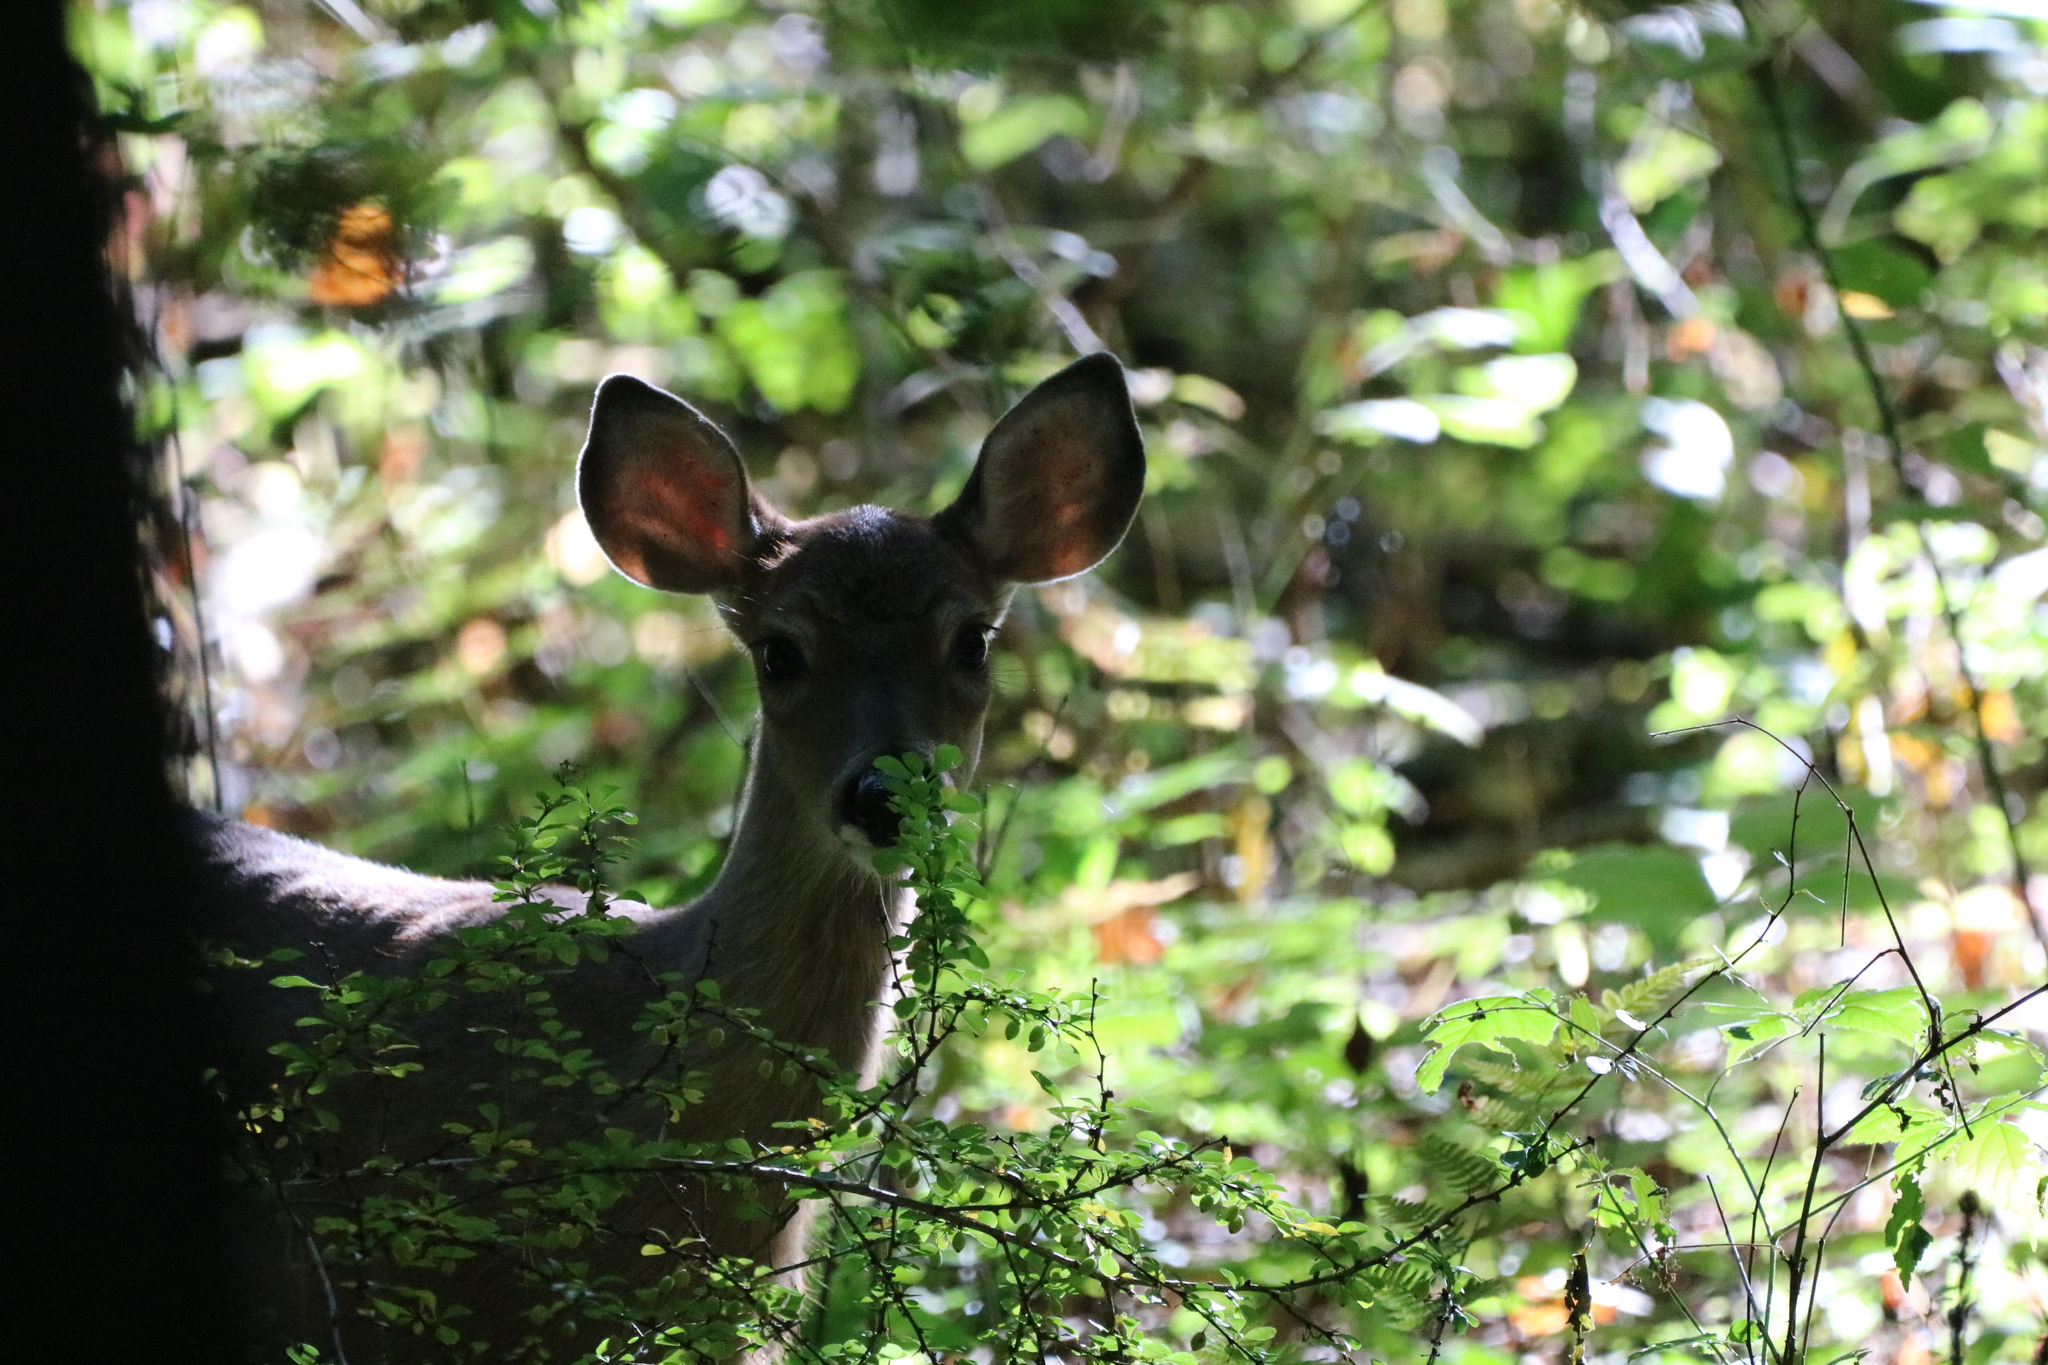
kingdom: Animalia
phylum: Chordata
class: Mammalia
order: Artiodactyla
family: Cervidae
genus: Odocoileus
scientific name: Odocoileus virginianus
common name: White-tailed deer
